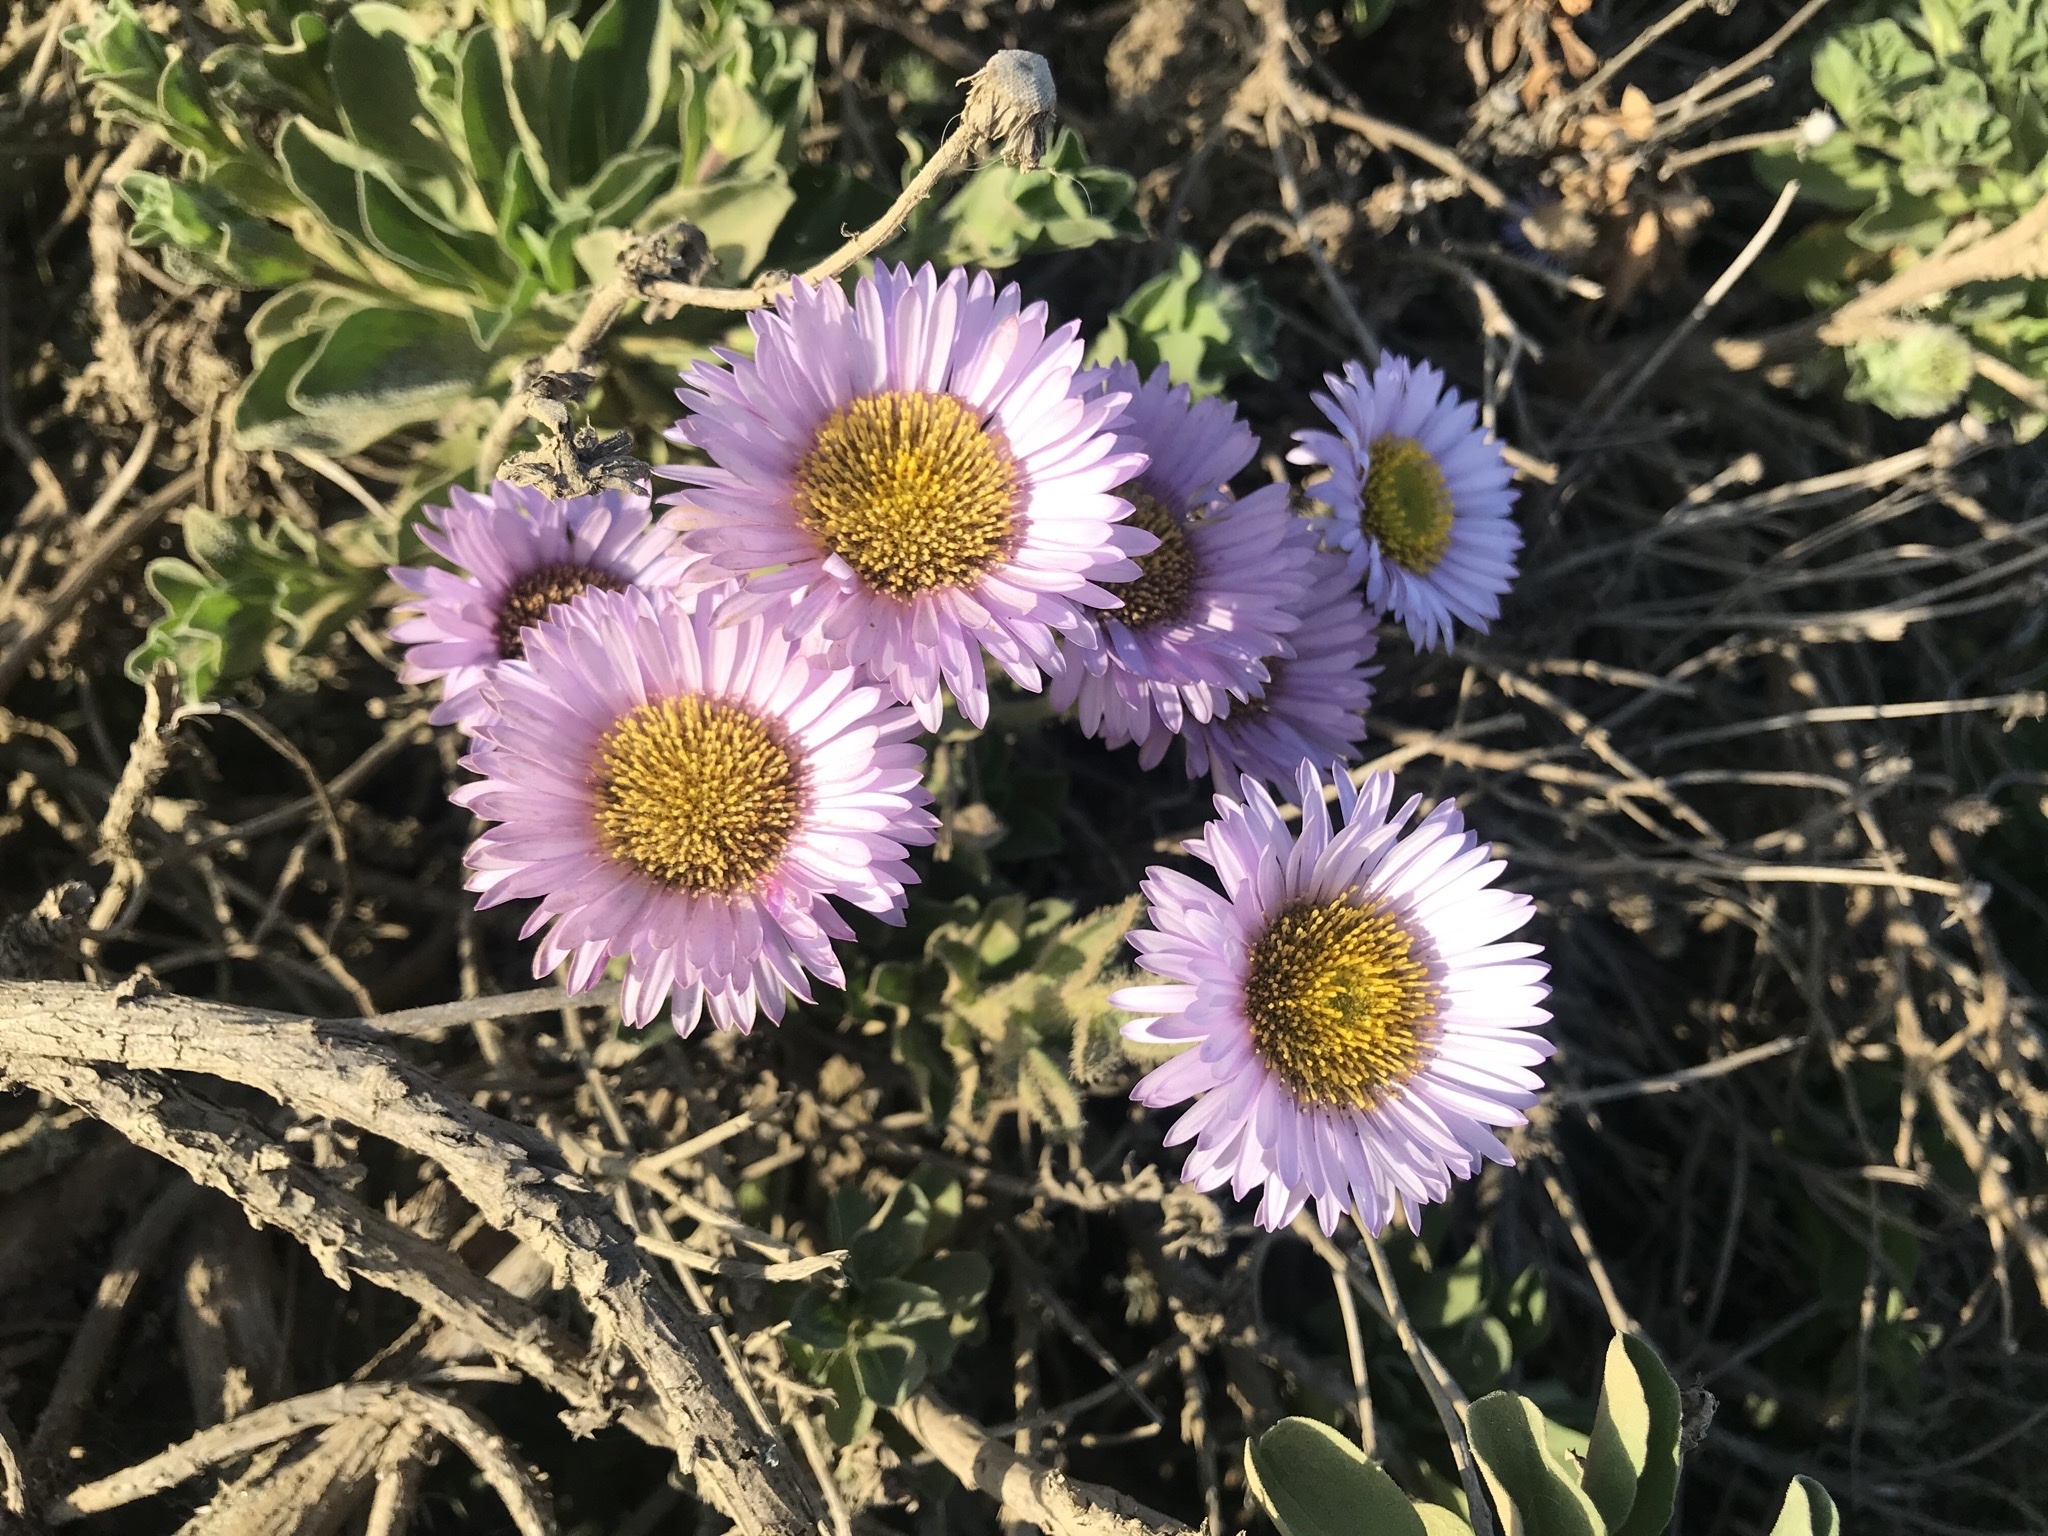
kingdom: Plantae
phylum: Tracheophyta
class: Magnoliopsida
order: Asterales
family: Asteraceae
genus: Erigeron
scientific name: Erigeron glaucus
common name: Seaside daisy
